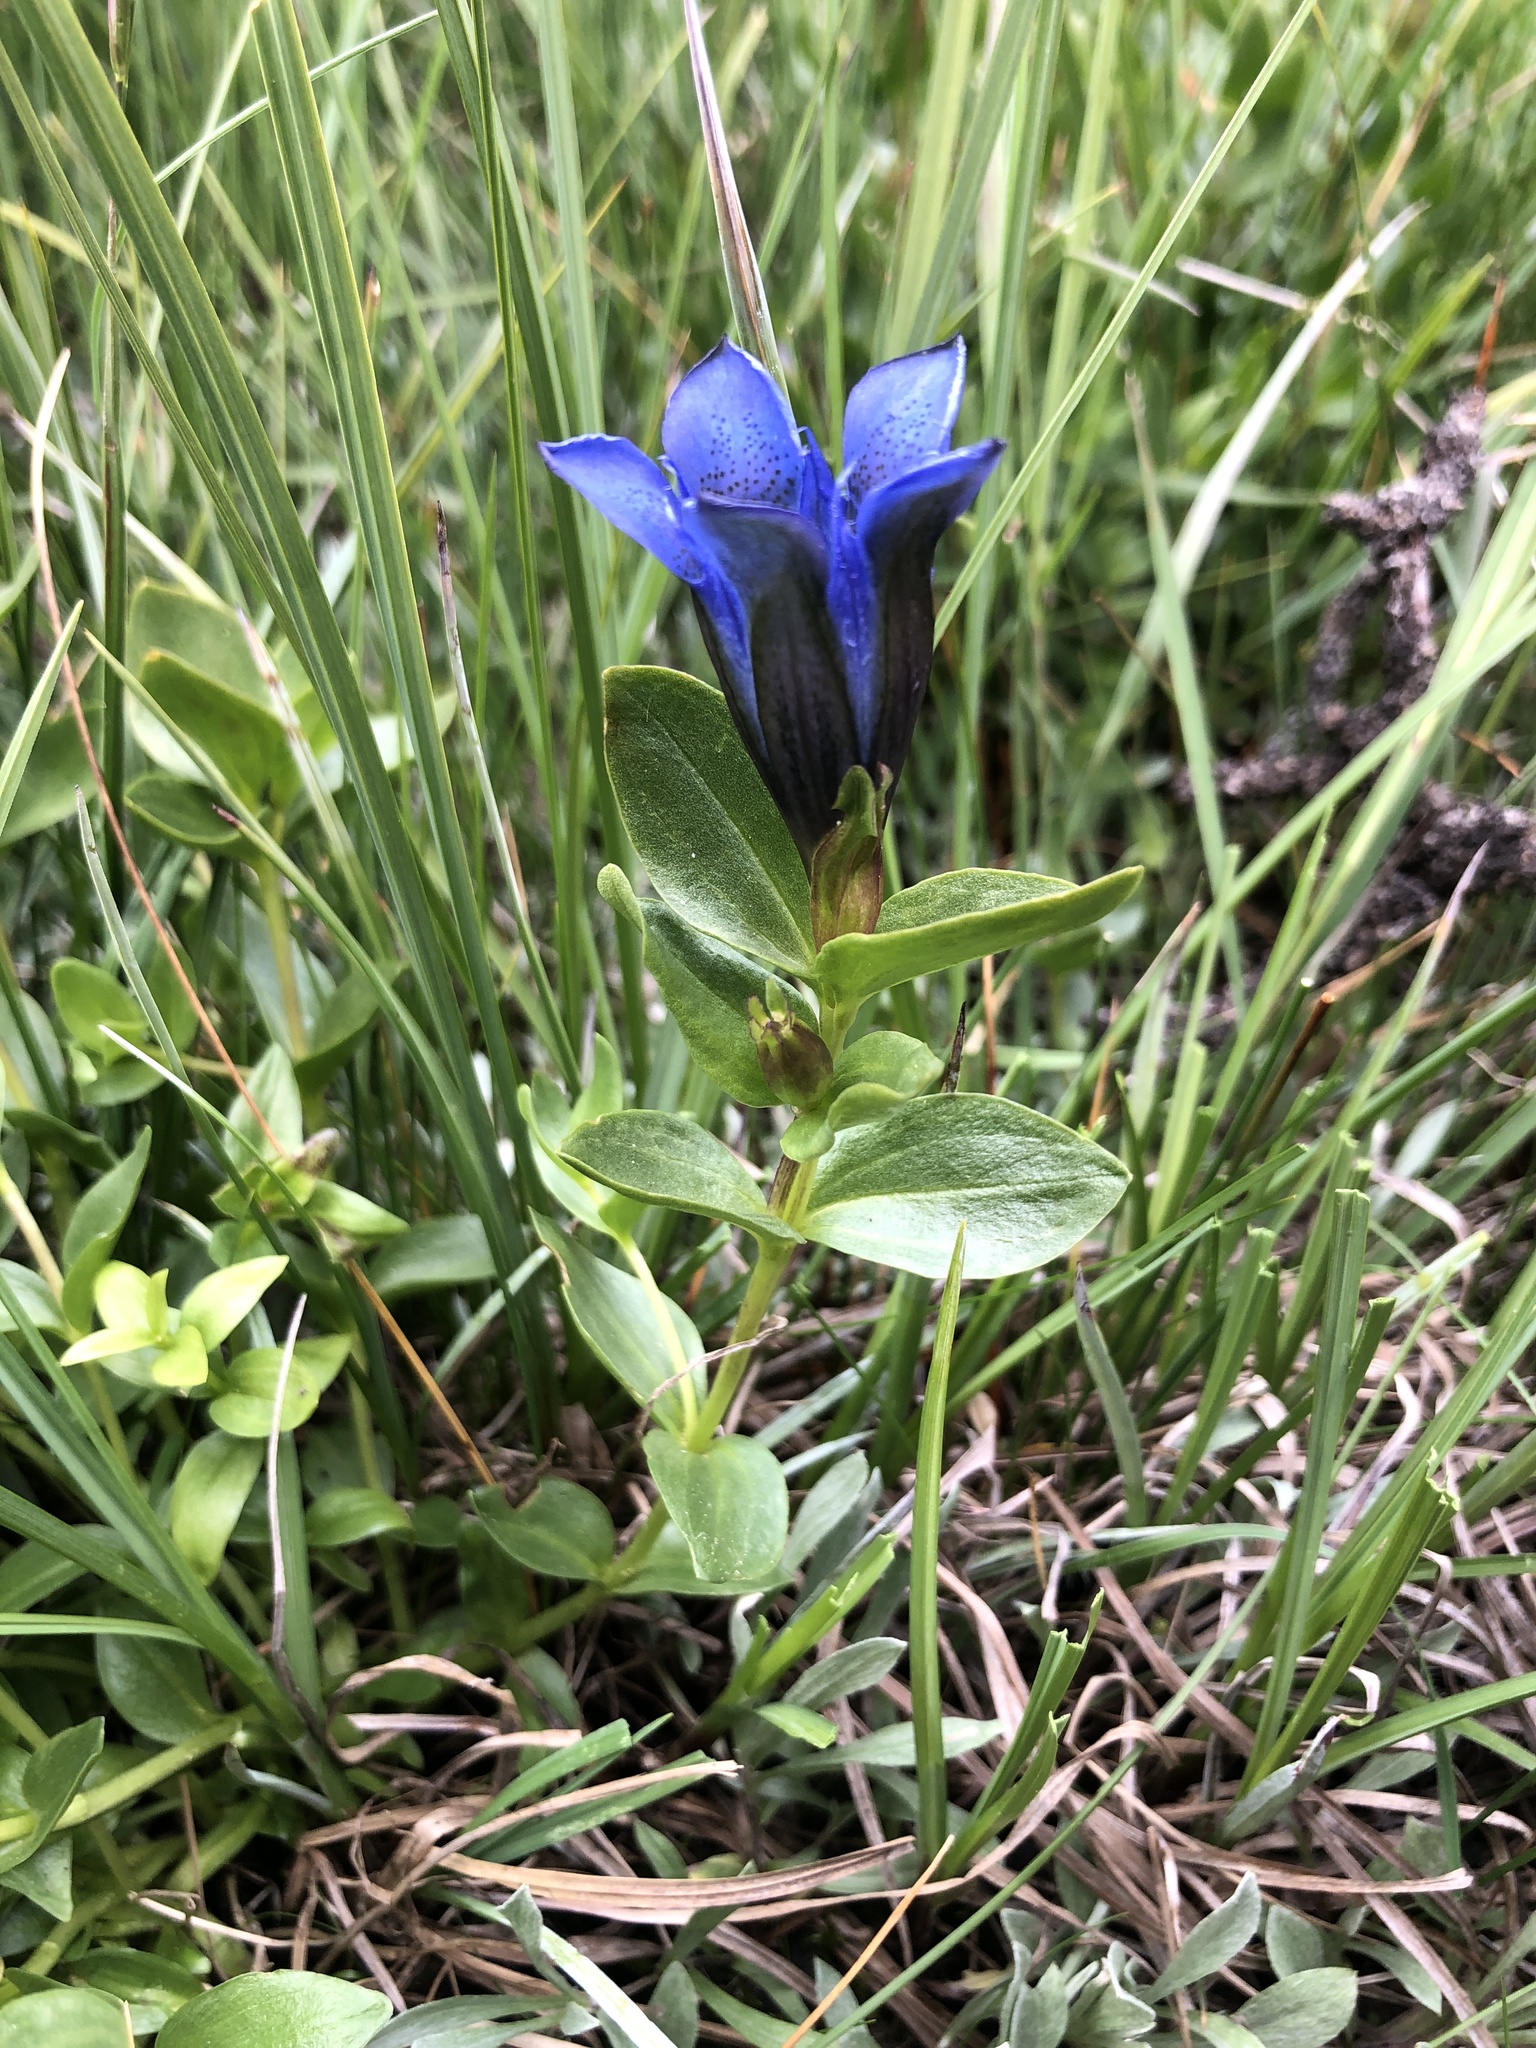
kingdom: Plantae
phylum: Tracheophyta
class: Magnoliopsida
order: Gentianales
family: Gentianaceae
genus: Gentiana
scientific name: Gentiana parryi
